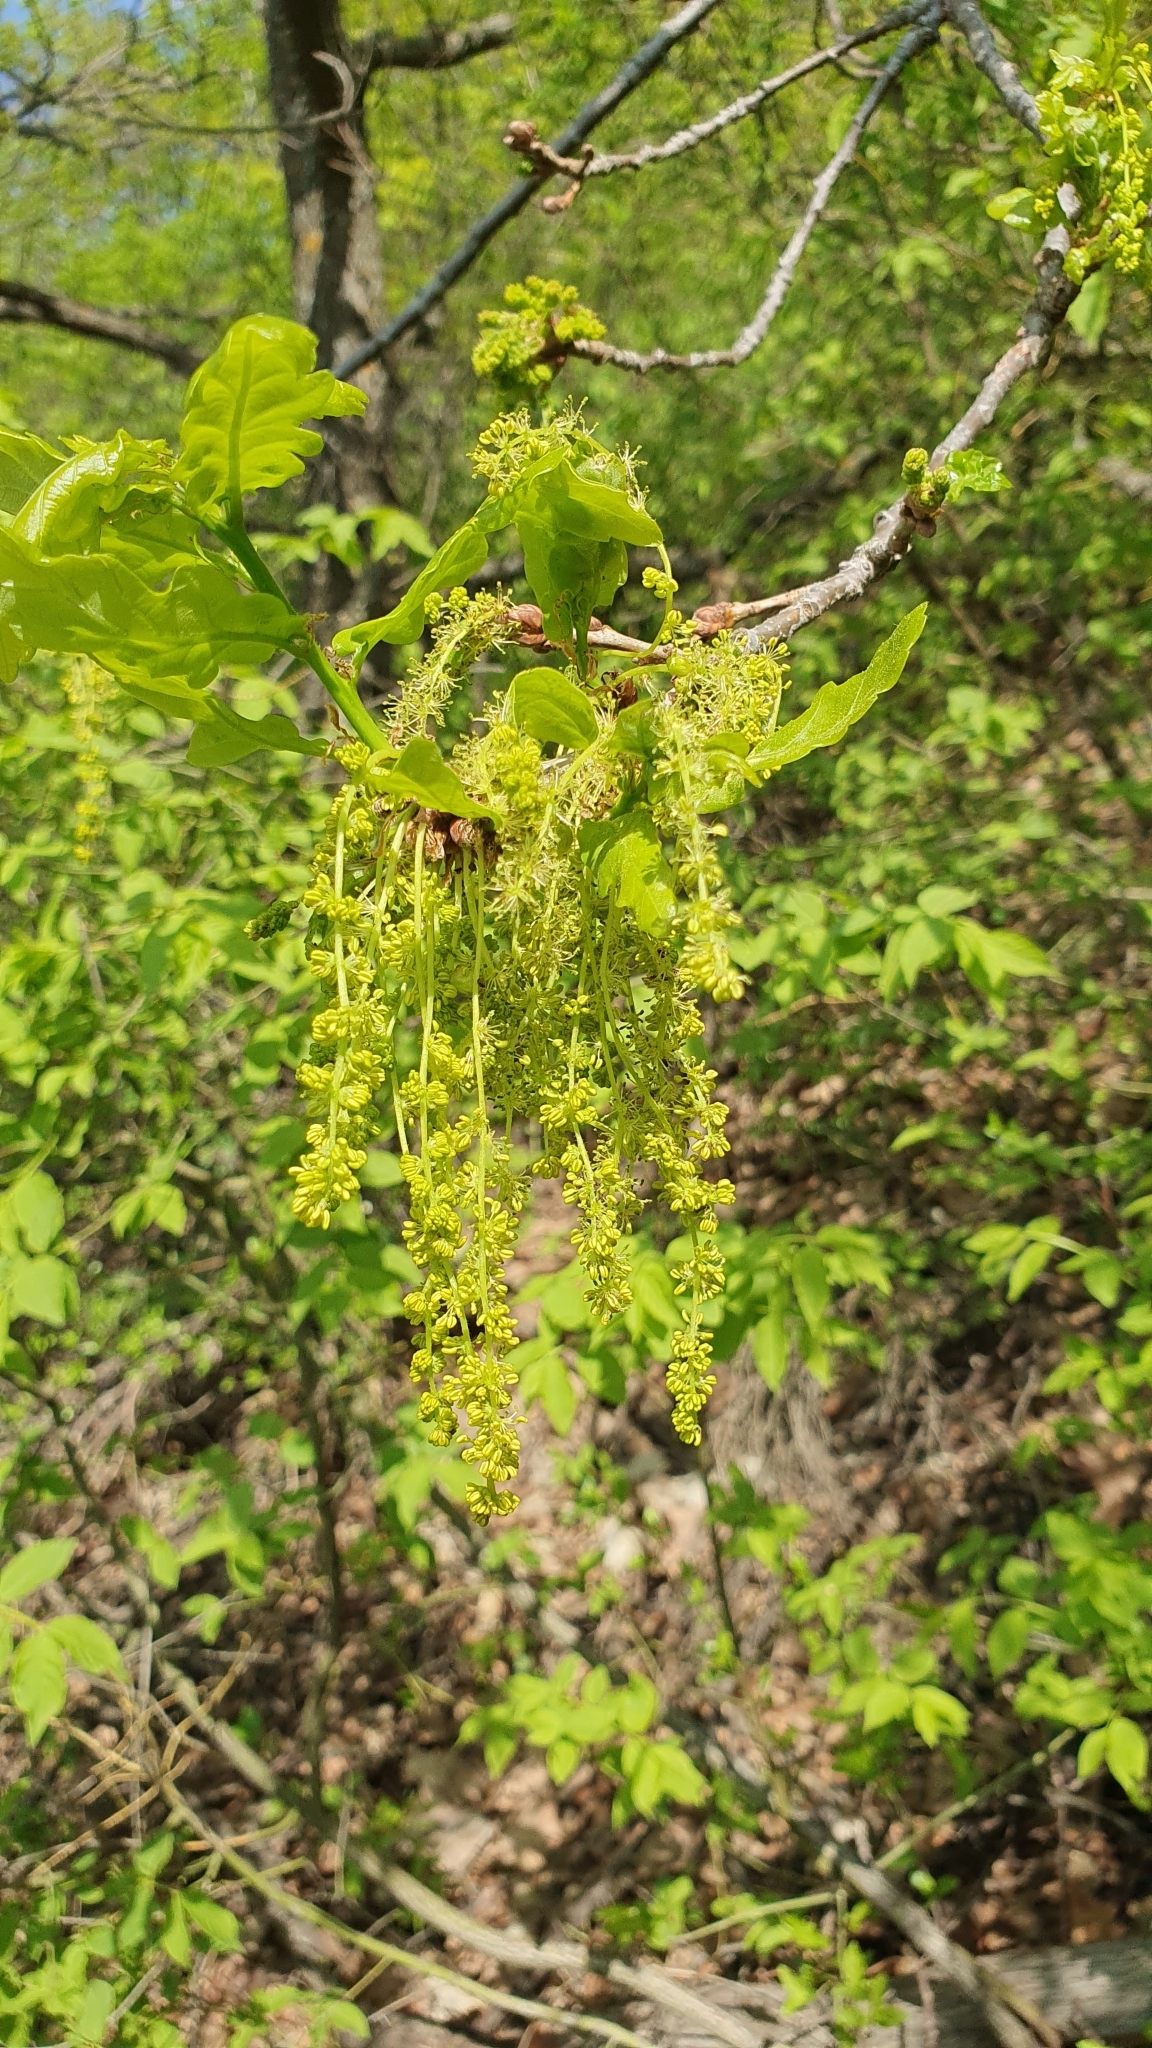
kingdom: Plantae
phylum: Tracheophyta
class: Magnoliopsida
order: Fagales
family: Fagaceae
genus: Quercus
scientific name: Quercus robur
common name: Pedunculate oak
